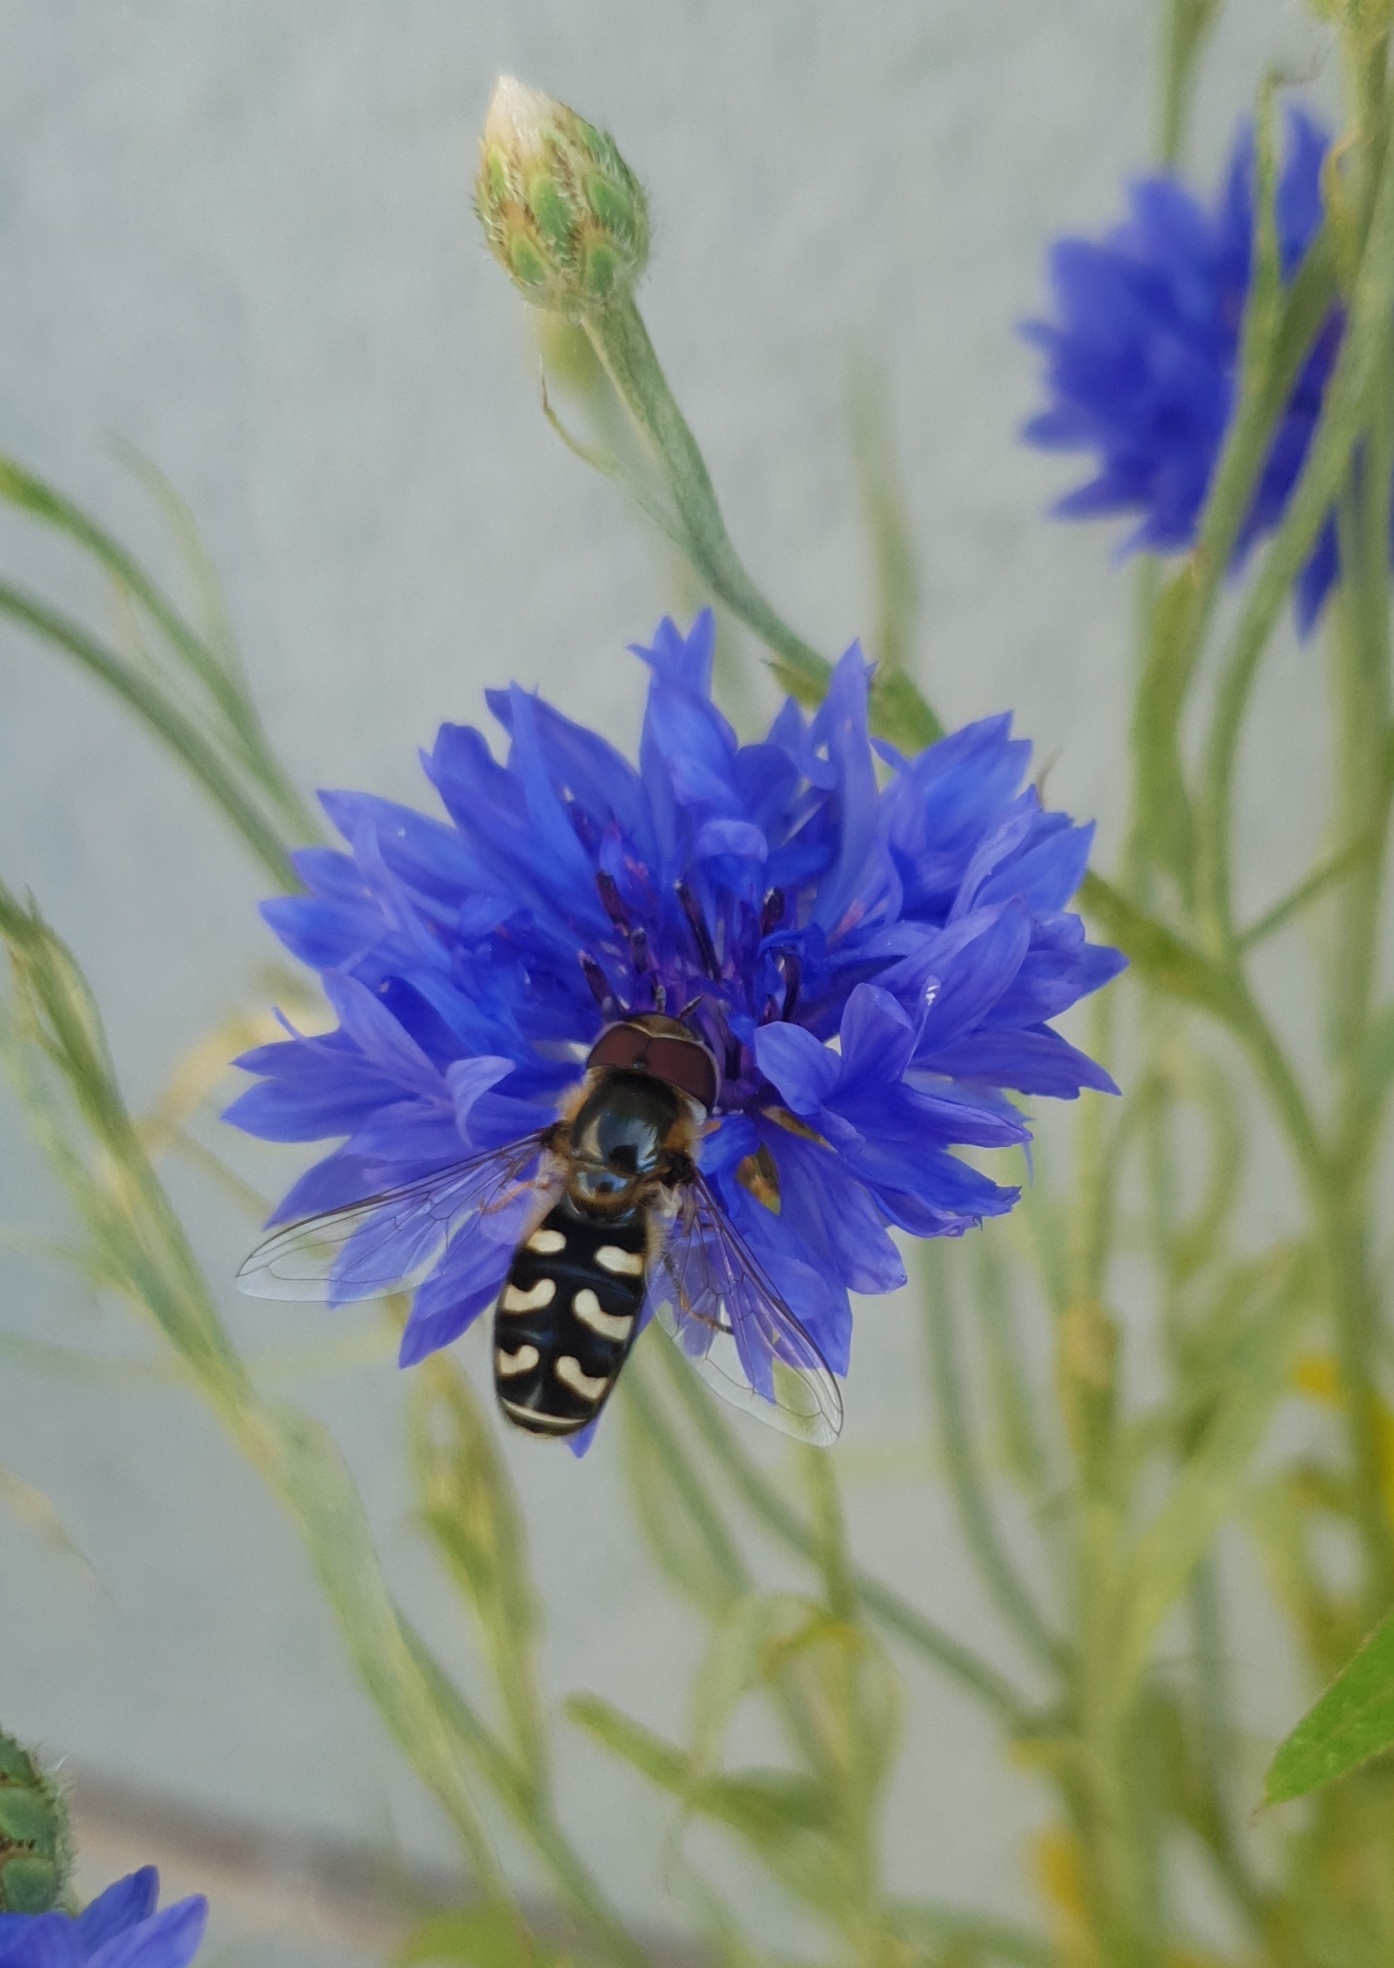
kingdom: Animalia
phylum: Arthropoda
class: Insecta
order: Diptera
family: Syrphidae
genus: Scaeva
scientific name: Scaeva pyrastri
